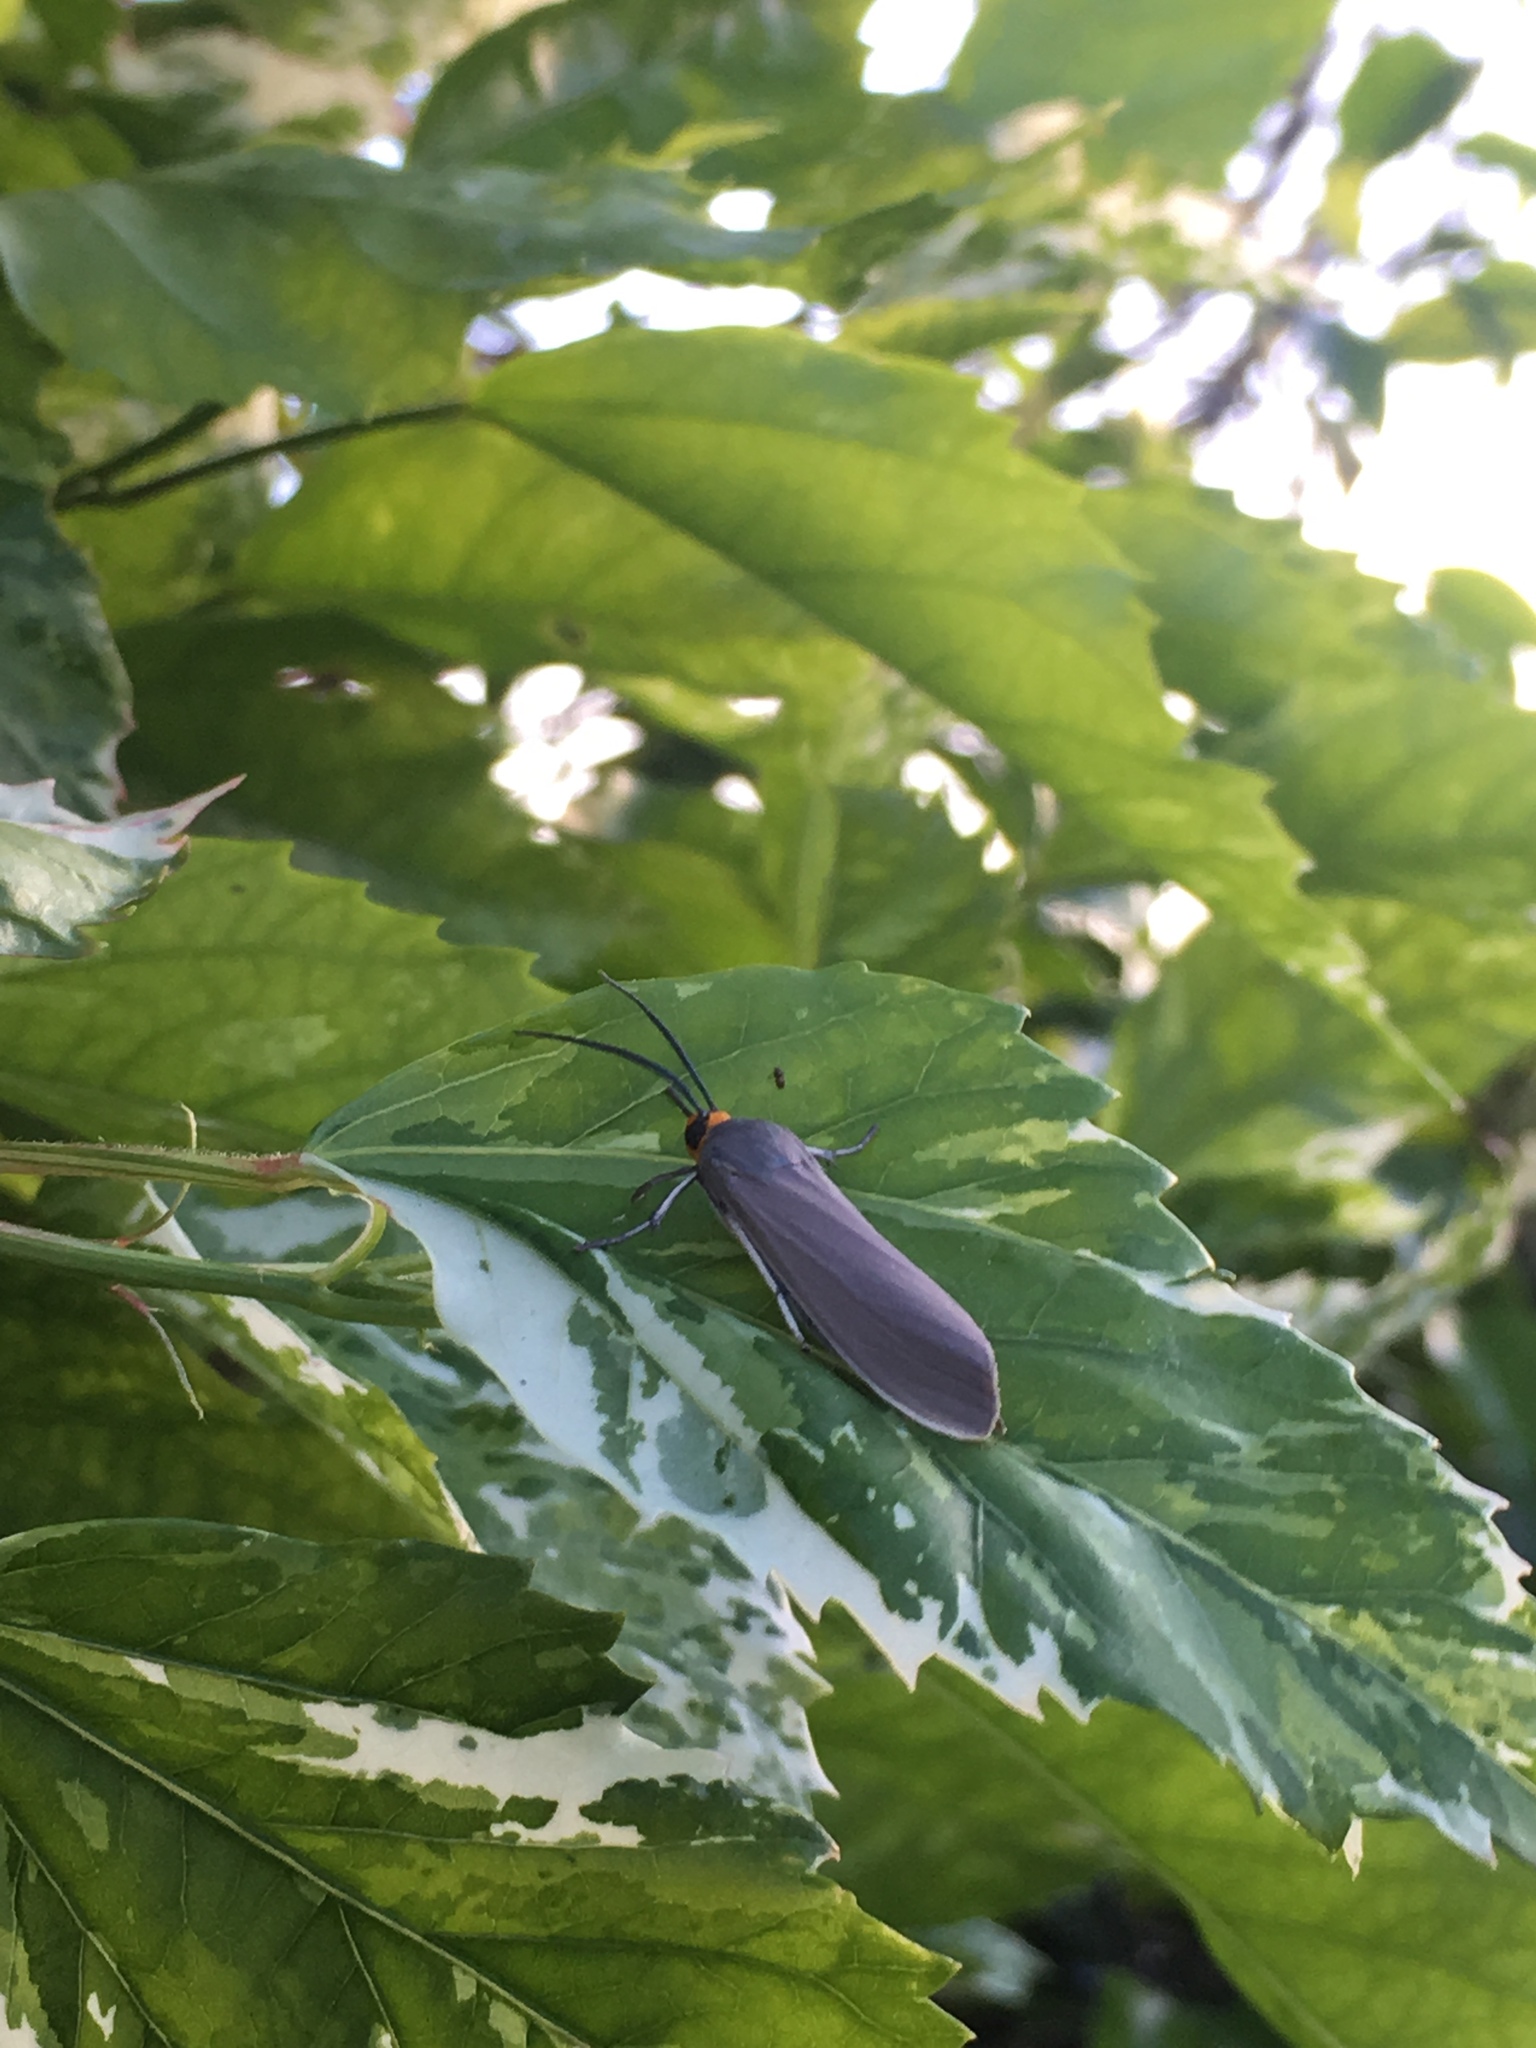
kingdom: Animalia
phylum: Arthropoda
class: Insecta
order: Lepidoptera
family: Erebidae
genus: Lymire
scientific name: Lymire edwardsii
